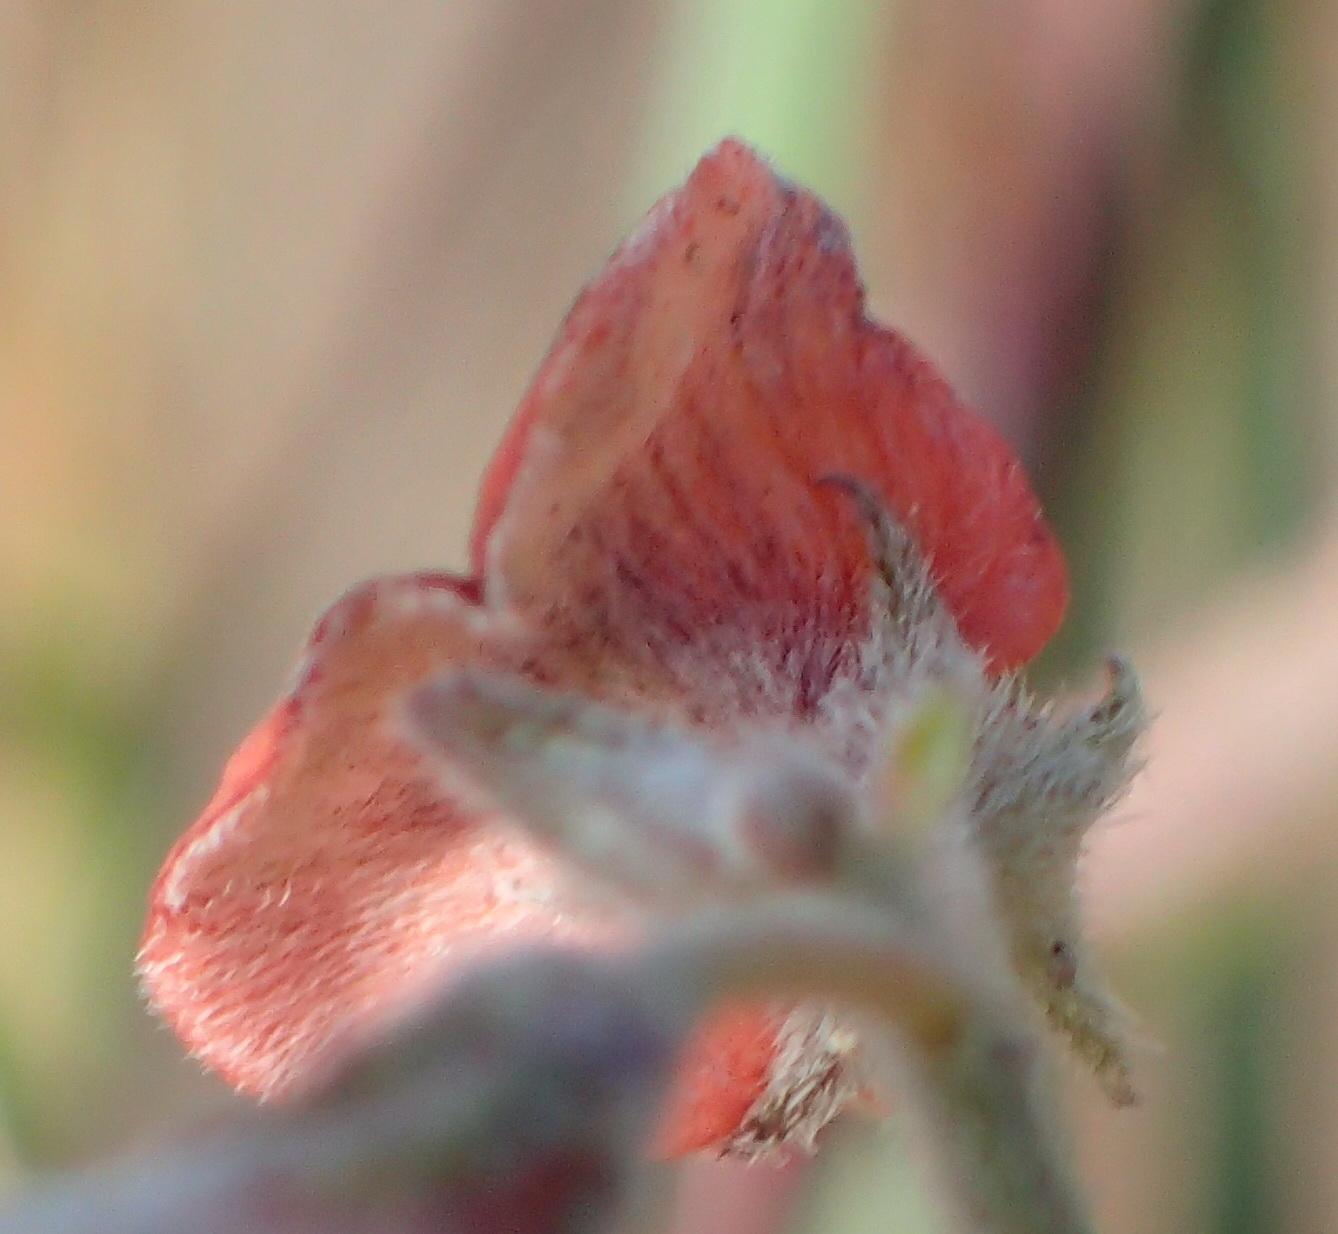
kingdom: Plantae
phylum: Tracheophyta
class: Magnoliopsida
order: Fabales
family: Fabaceae
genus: Indigofera
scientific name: Indigofera priorii
